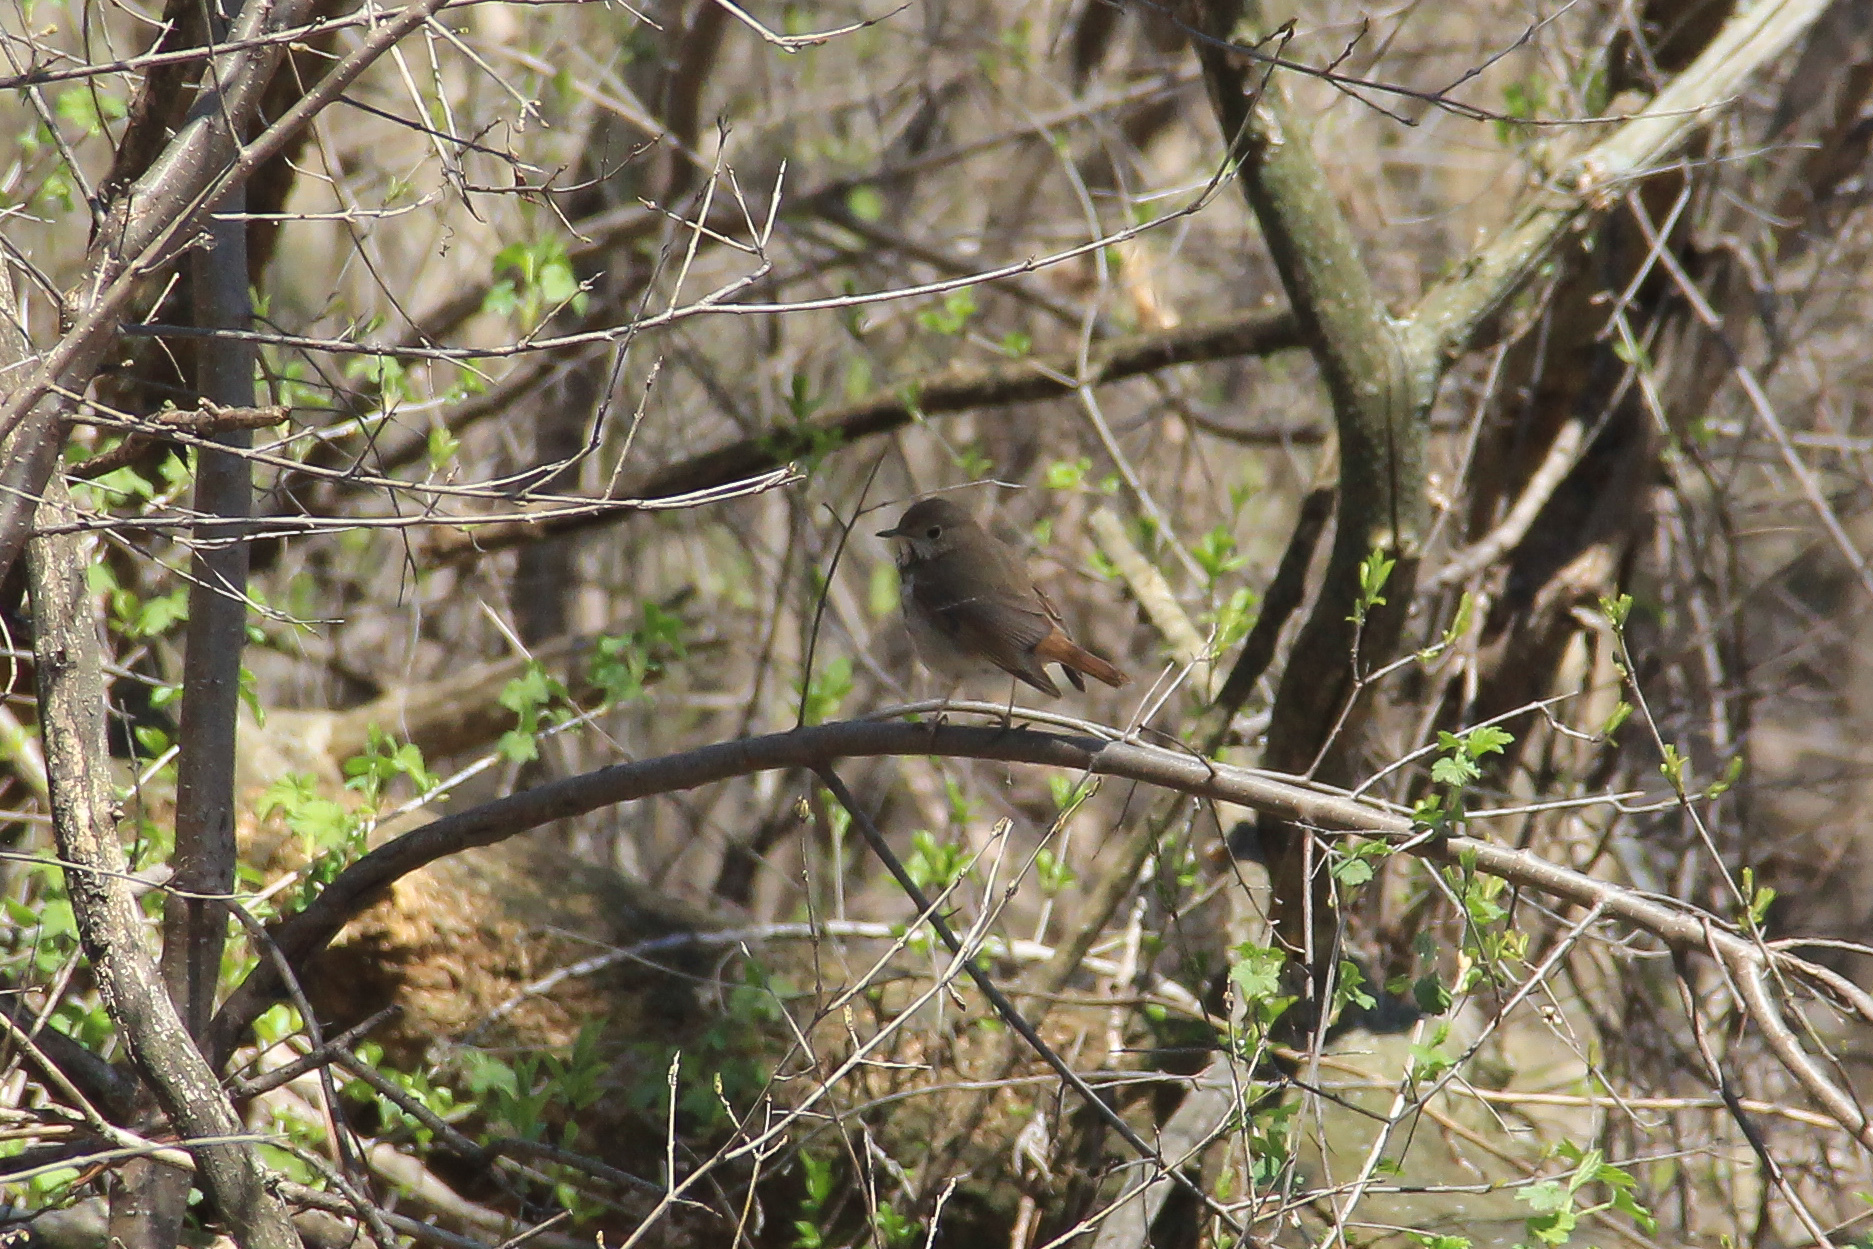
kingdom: Animalia
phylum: Chordata
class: Aves
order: Passeriformes
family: Turdidae
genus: Catharus
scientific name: Catharus guttatus
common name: Hermit thrush
